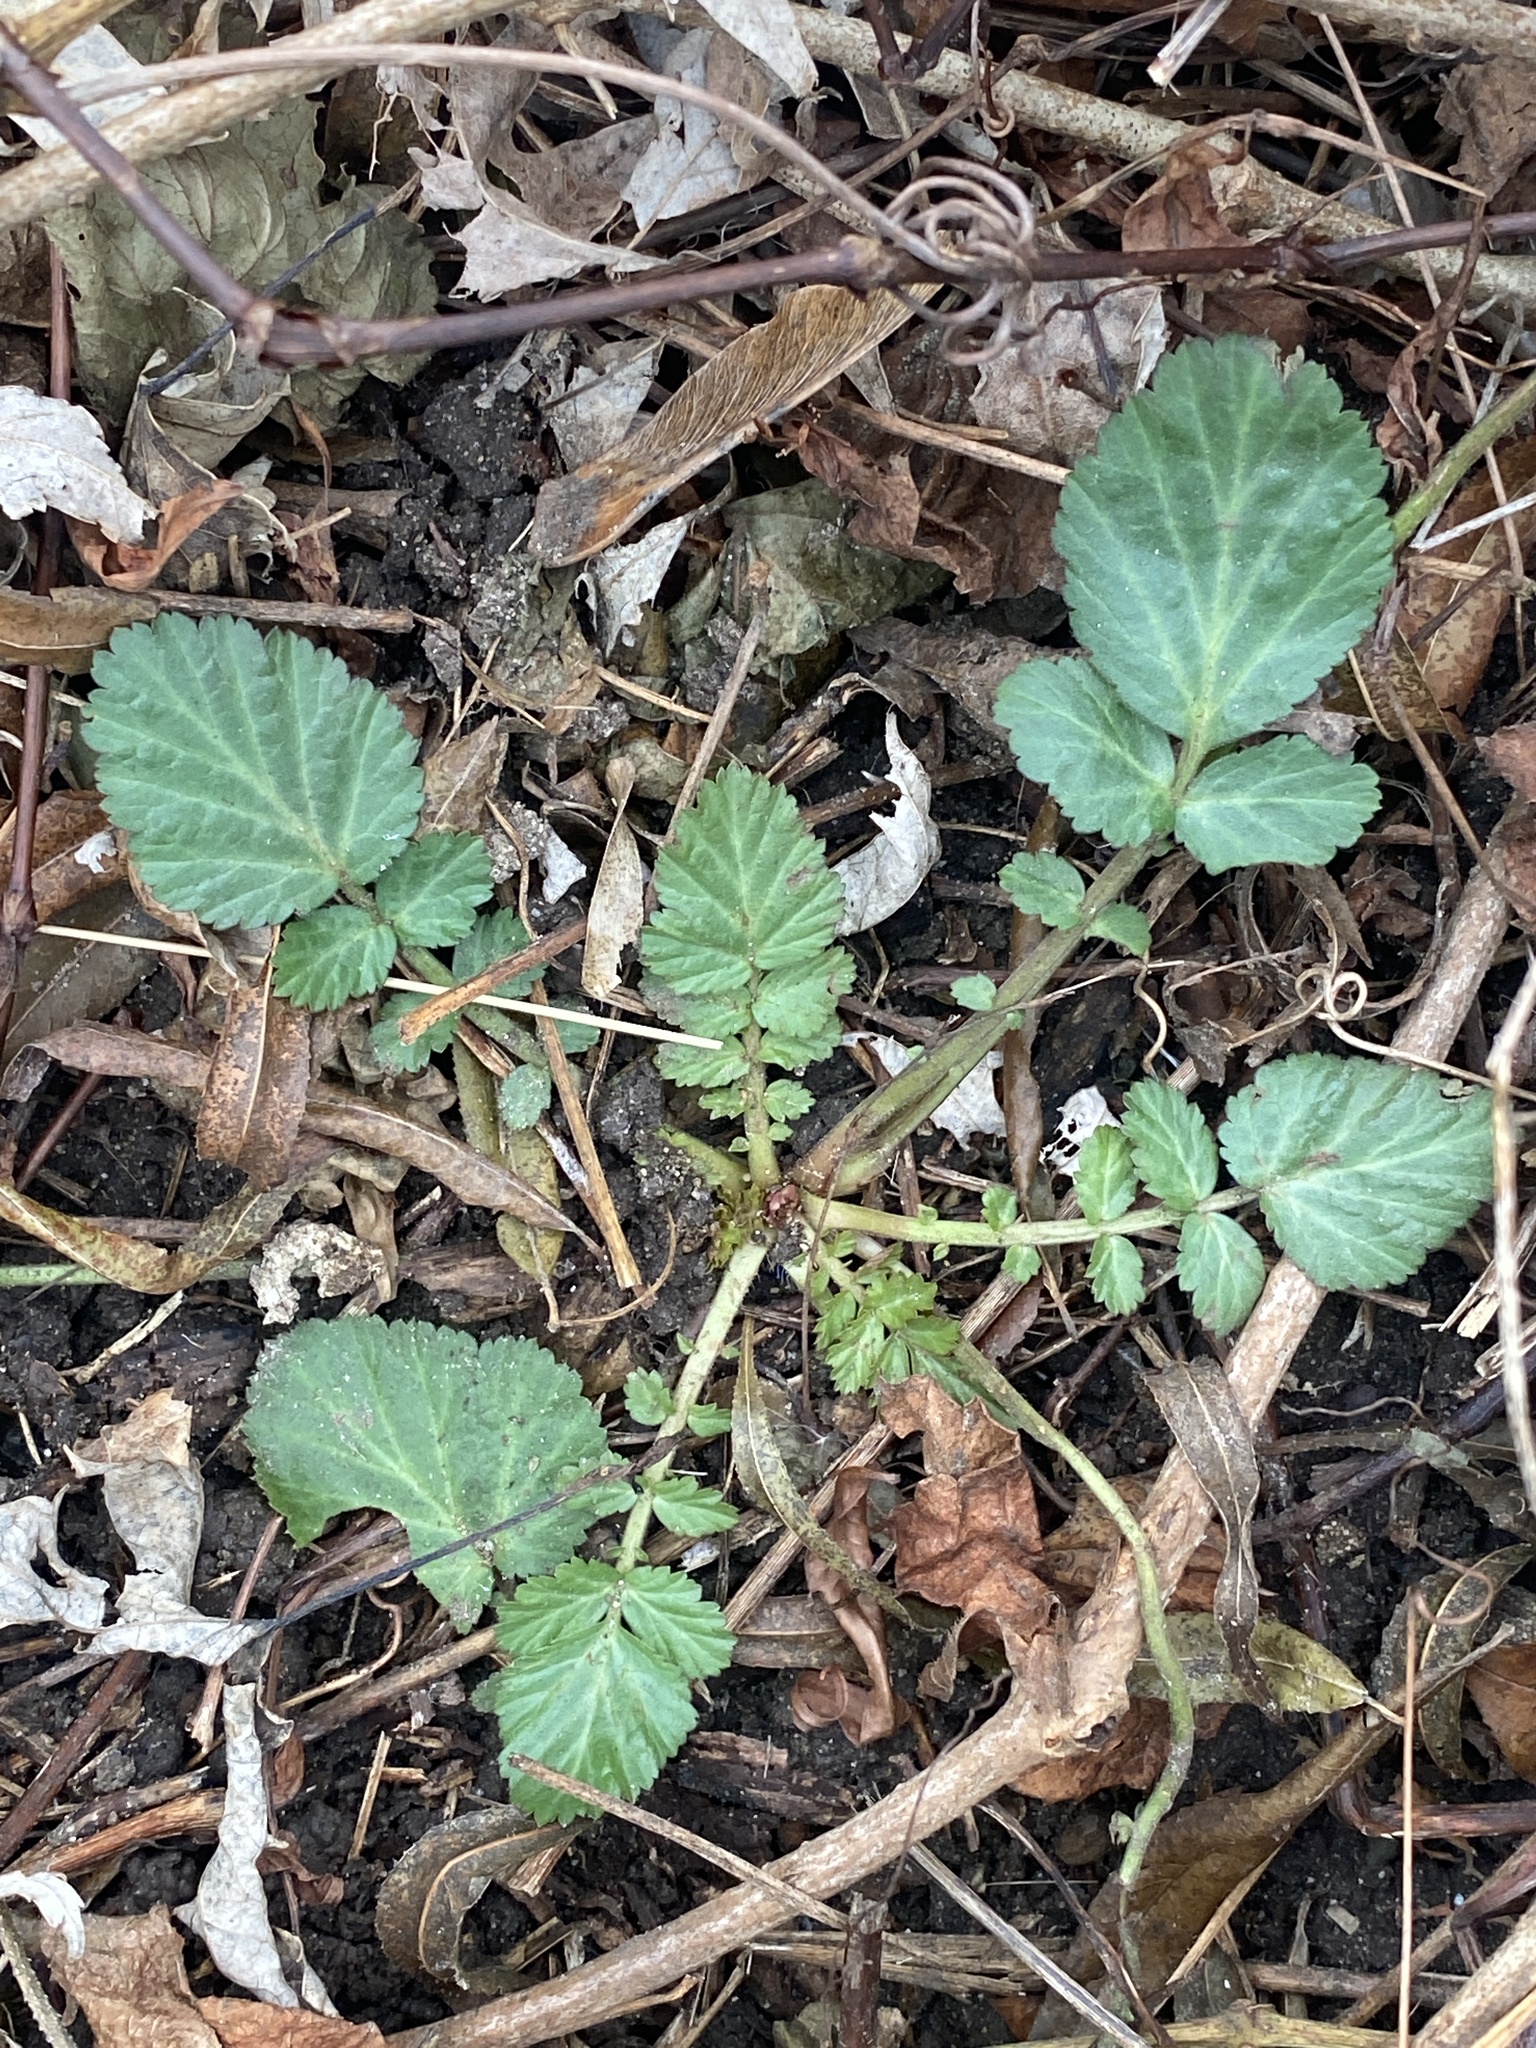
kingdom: Plantae
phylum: Tracheophyta
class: Magnoliopsida
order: Rosales
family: Rosaceae
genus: Geum
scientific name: Geum canadense
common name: White avens
